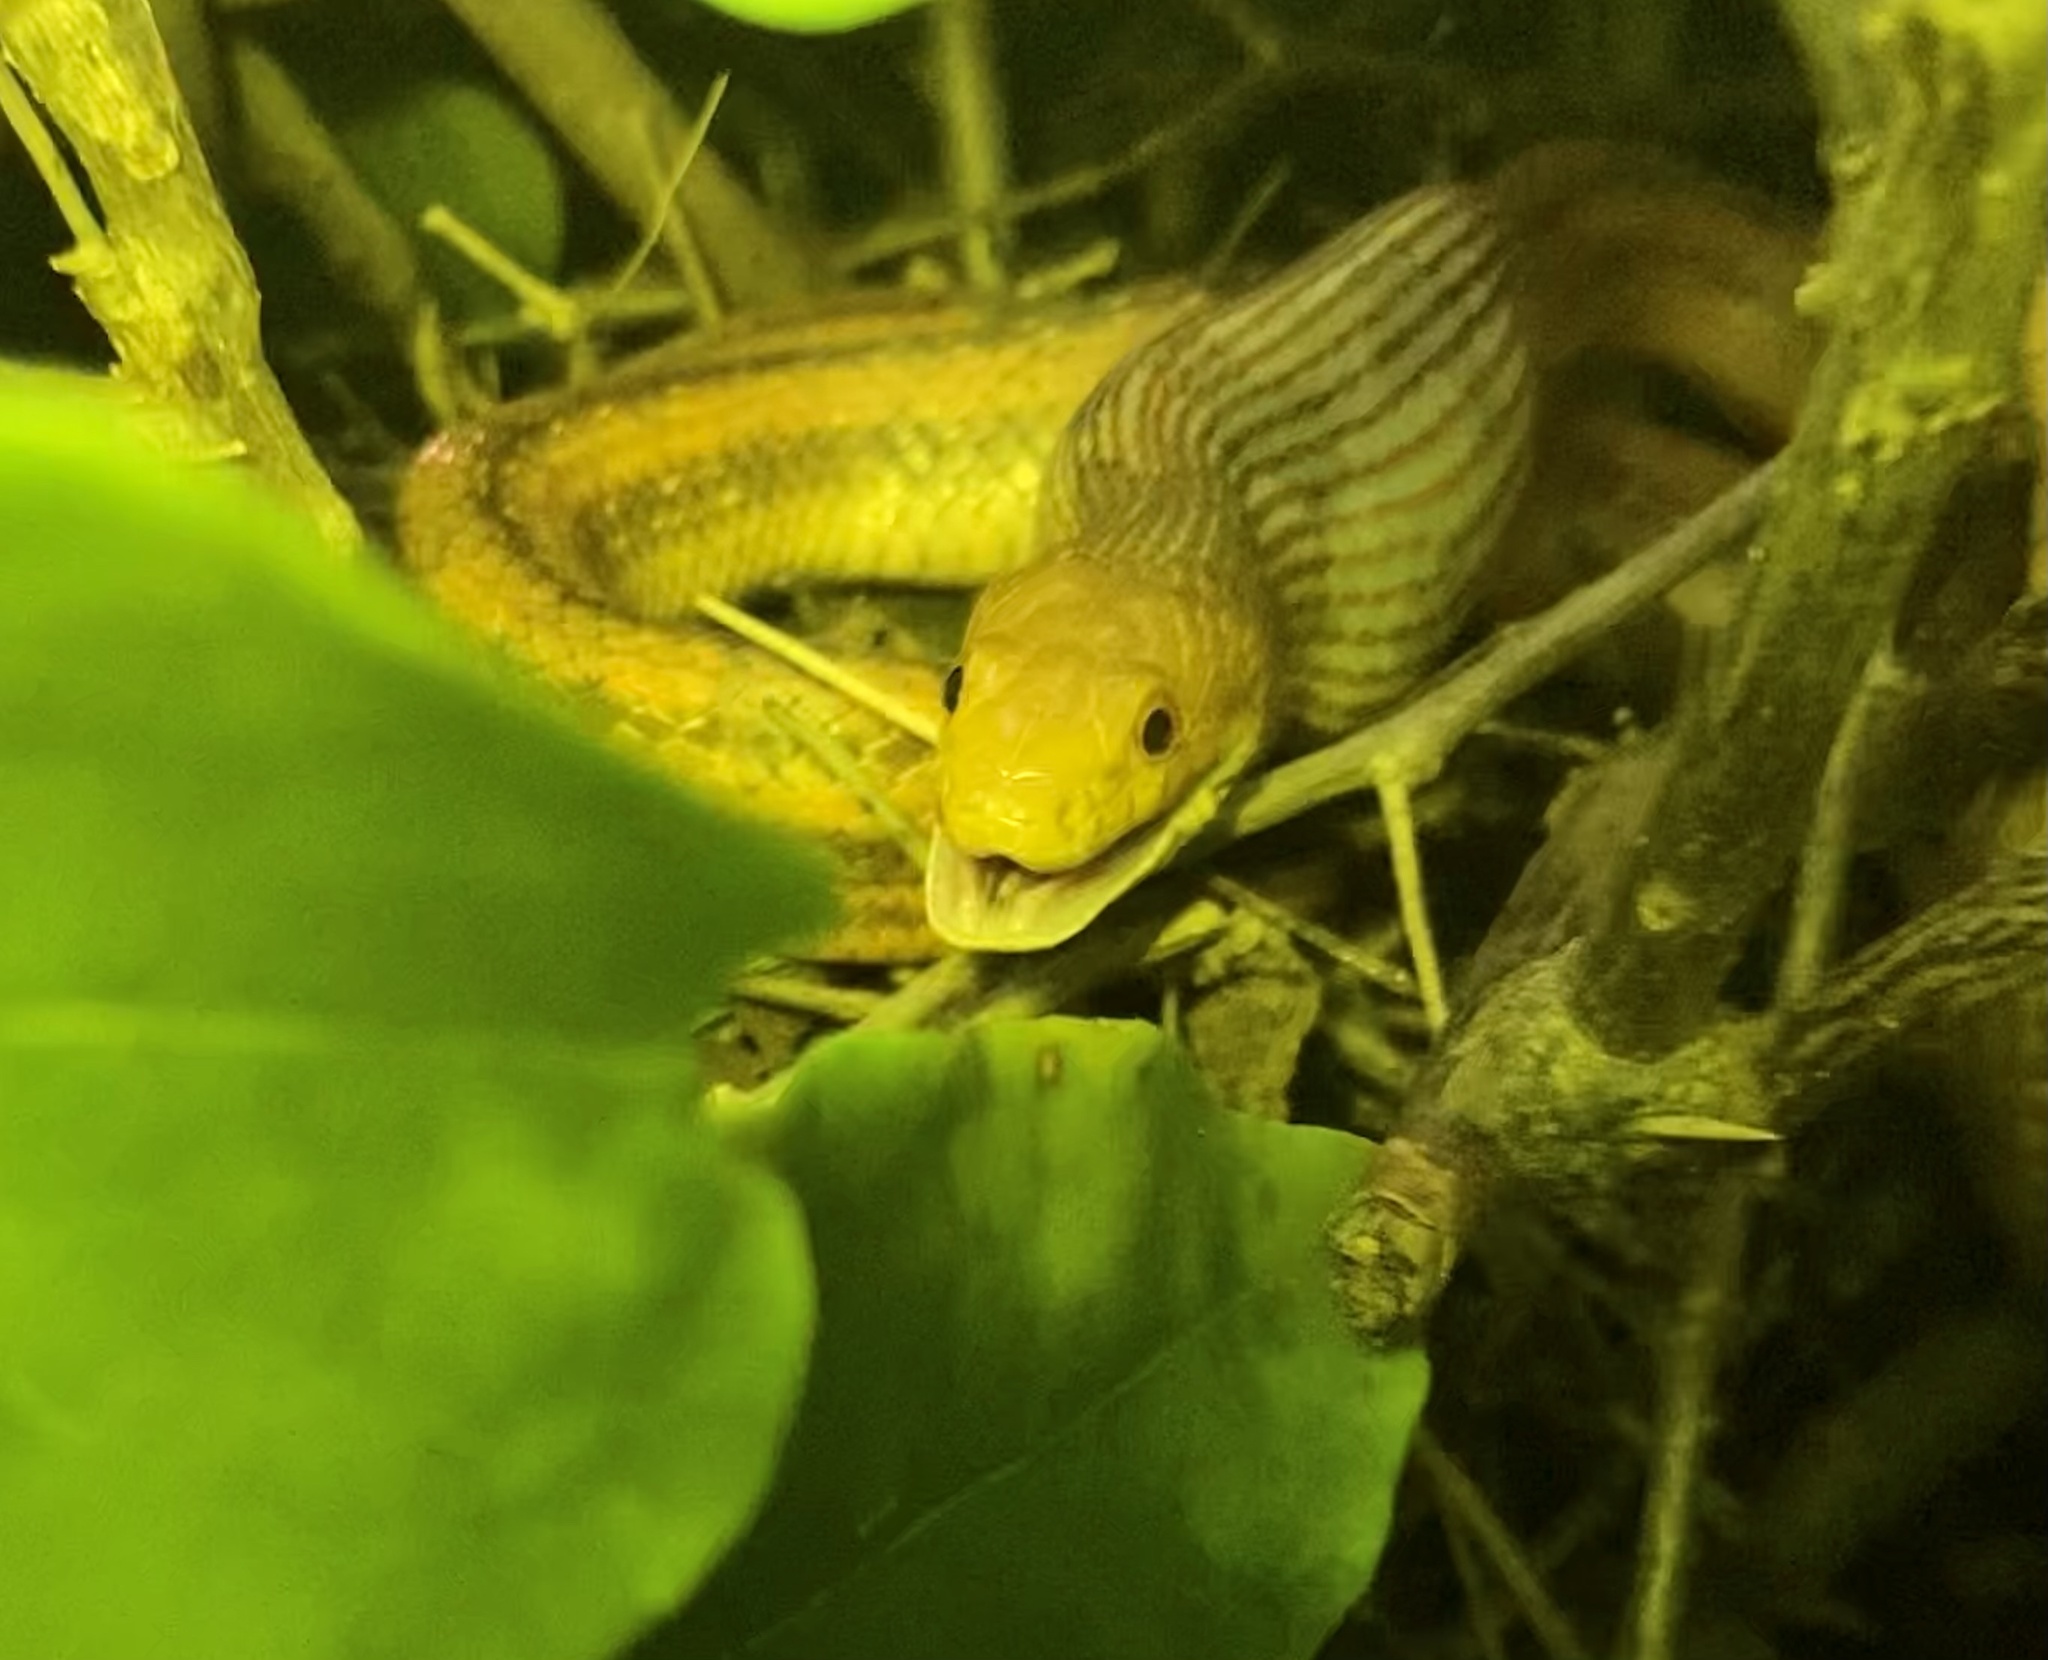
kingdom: Animalia
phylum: Chordata
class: Squamata
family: Colubridae
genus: Pantherophis
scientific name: Pantherophis alleghaniensis
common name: Eastern rat snake
